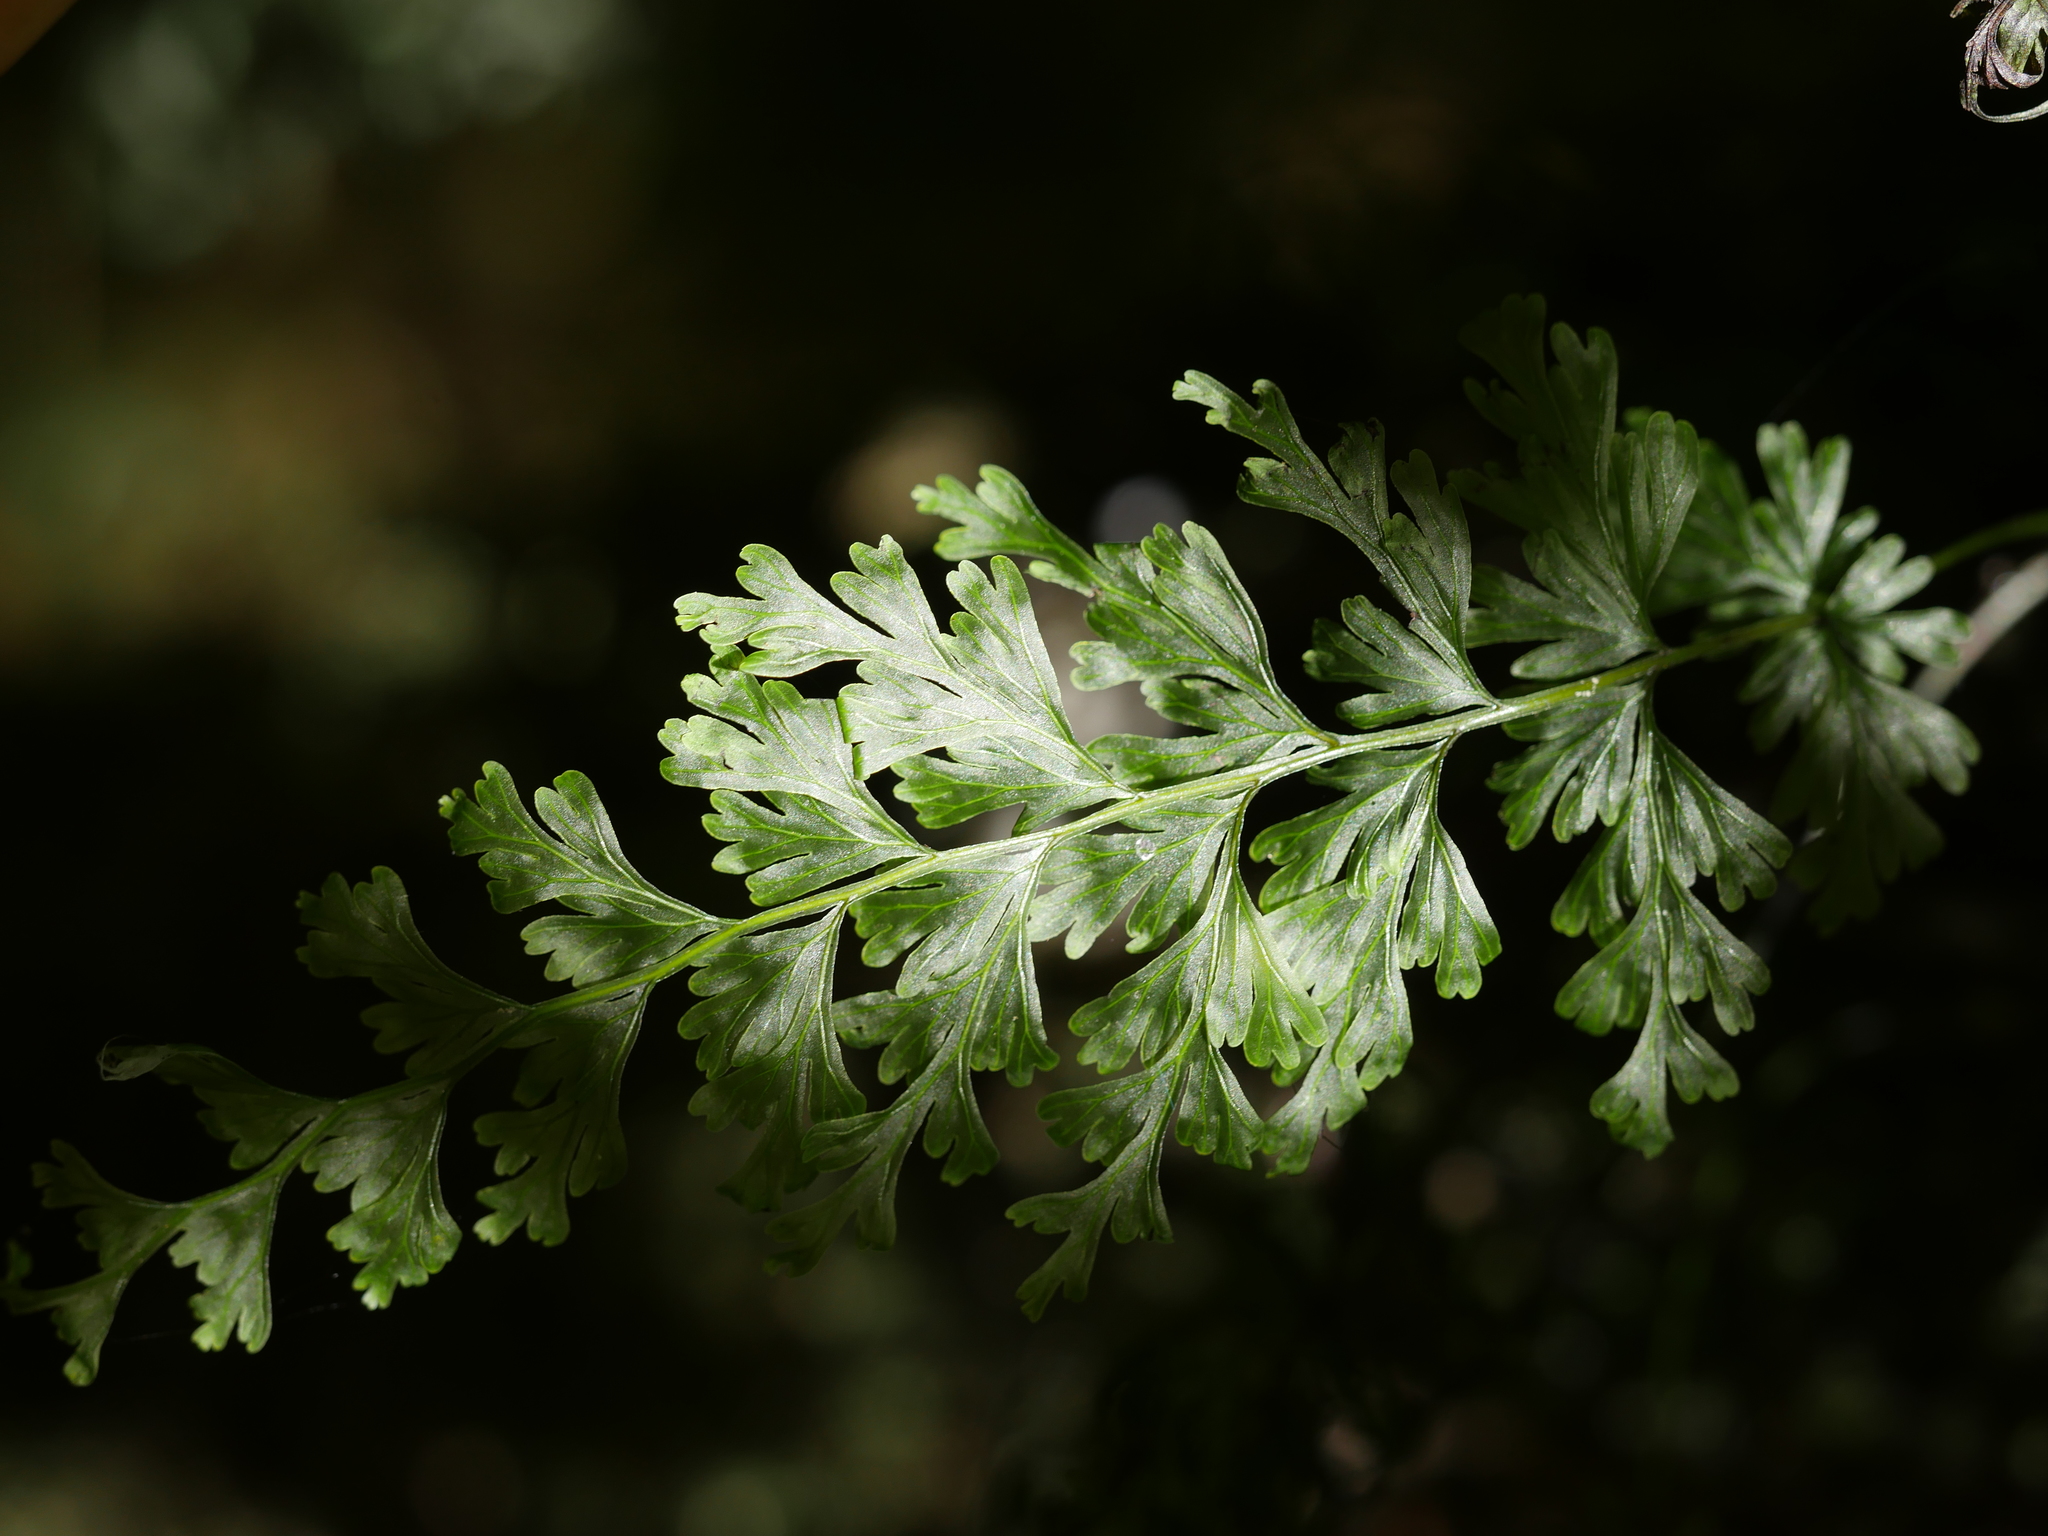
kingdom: Plantae
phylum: Tracheophyta
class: Polypodiopsida
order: Hymenophyllales
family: Hymenophyllaceae
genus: Hymenophyllum
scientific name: Hymenophyllum dilatatum
